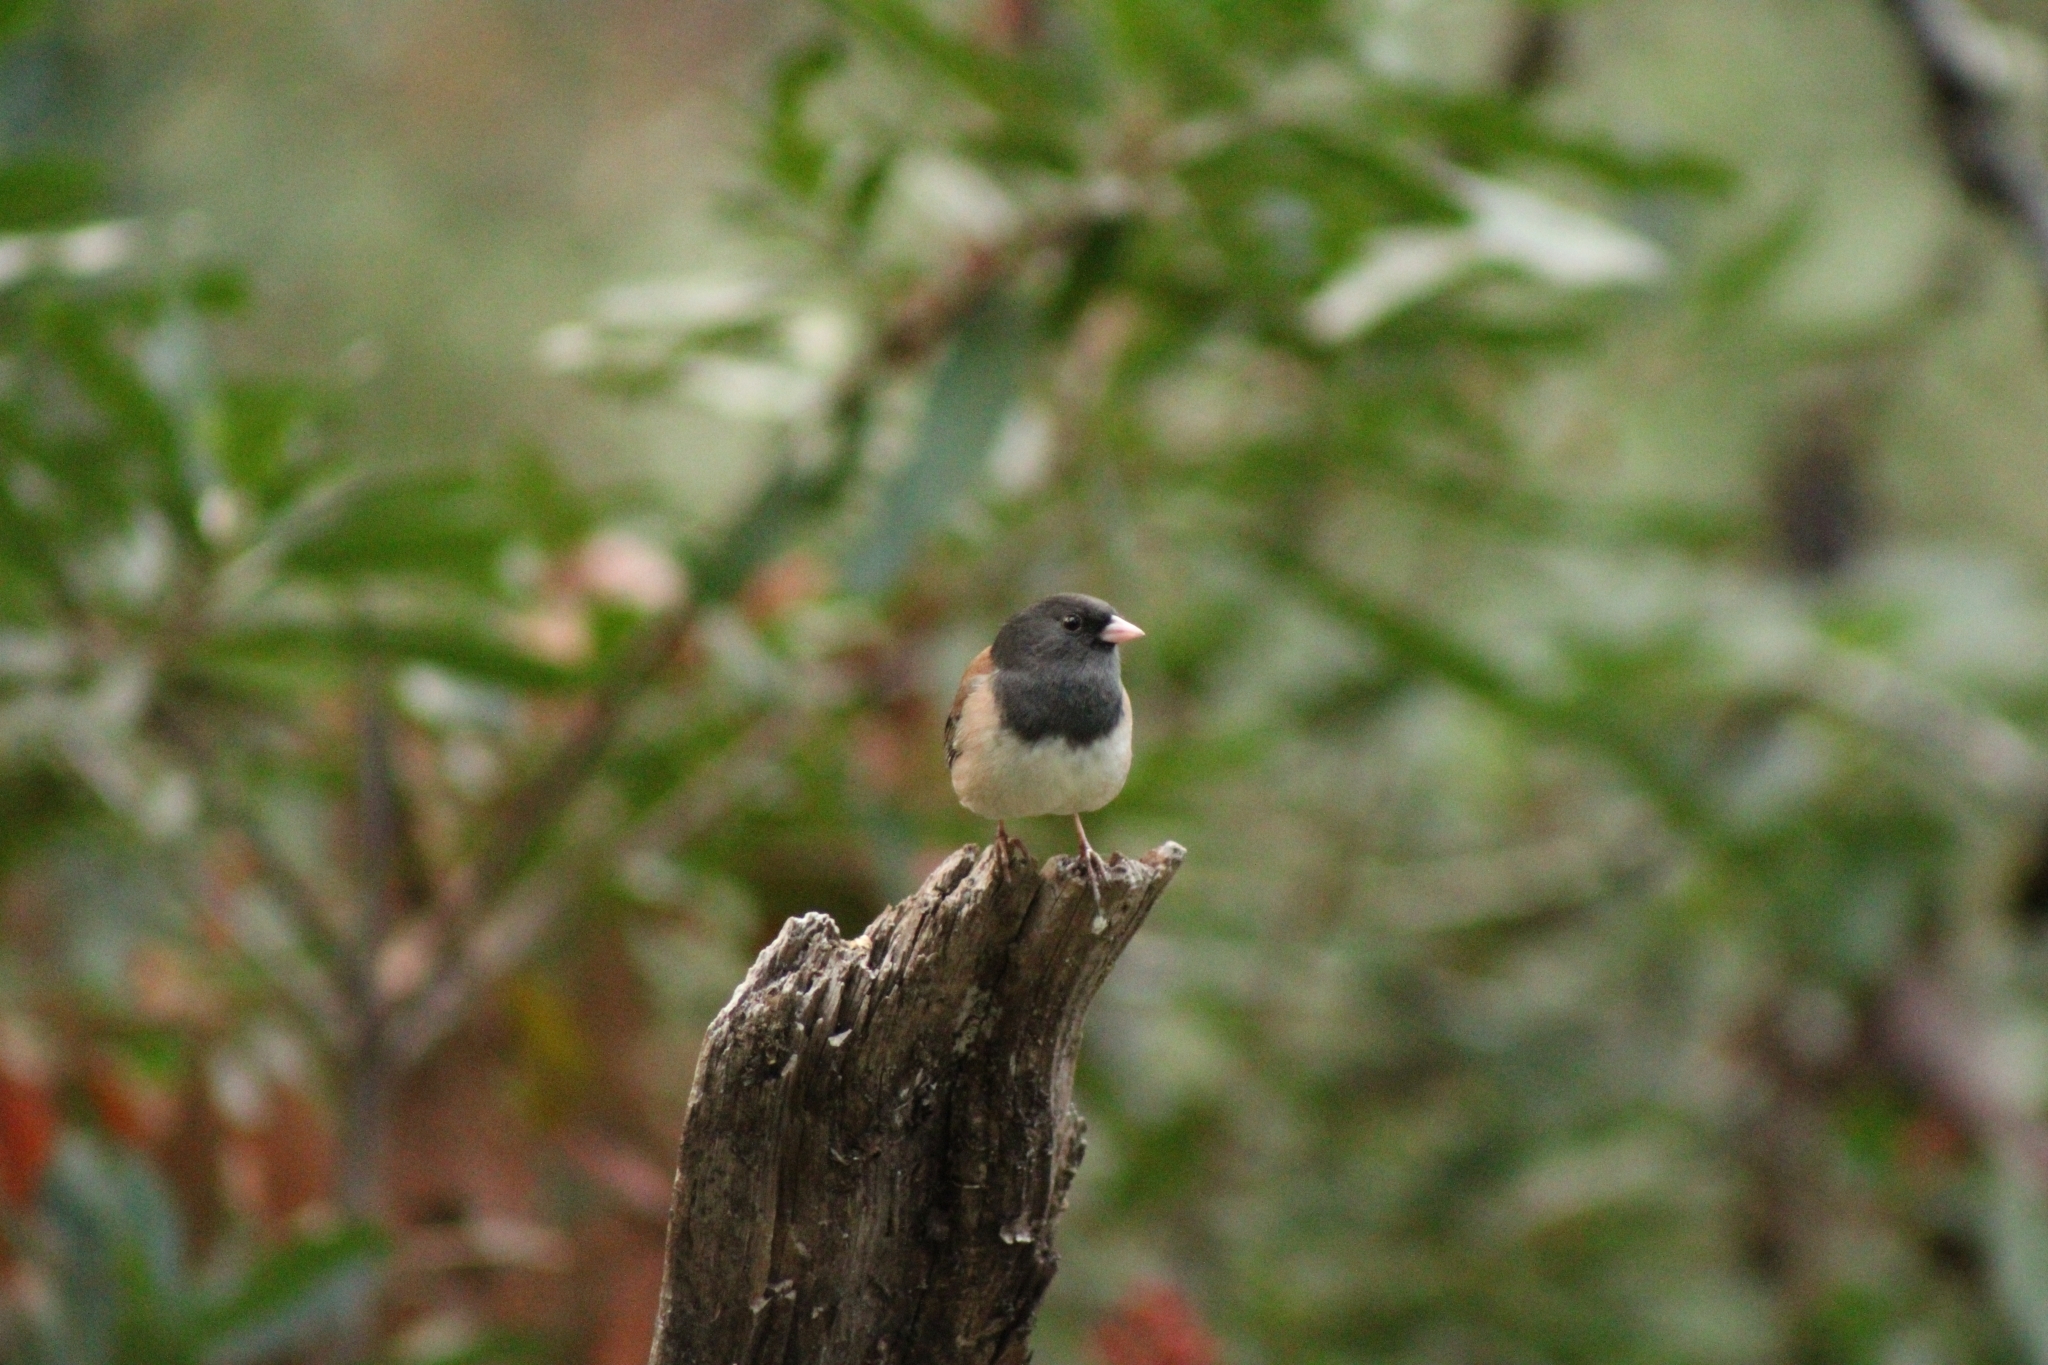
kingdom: Animalia
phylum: Chordata
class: Aves
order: Passeriformes
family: Passerellidae
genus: Junco
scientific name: Junco hyemalis
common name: Dark-eyed junco
